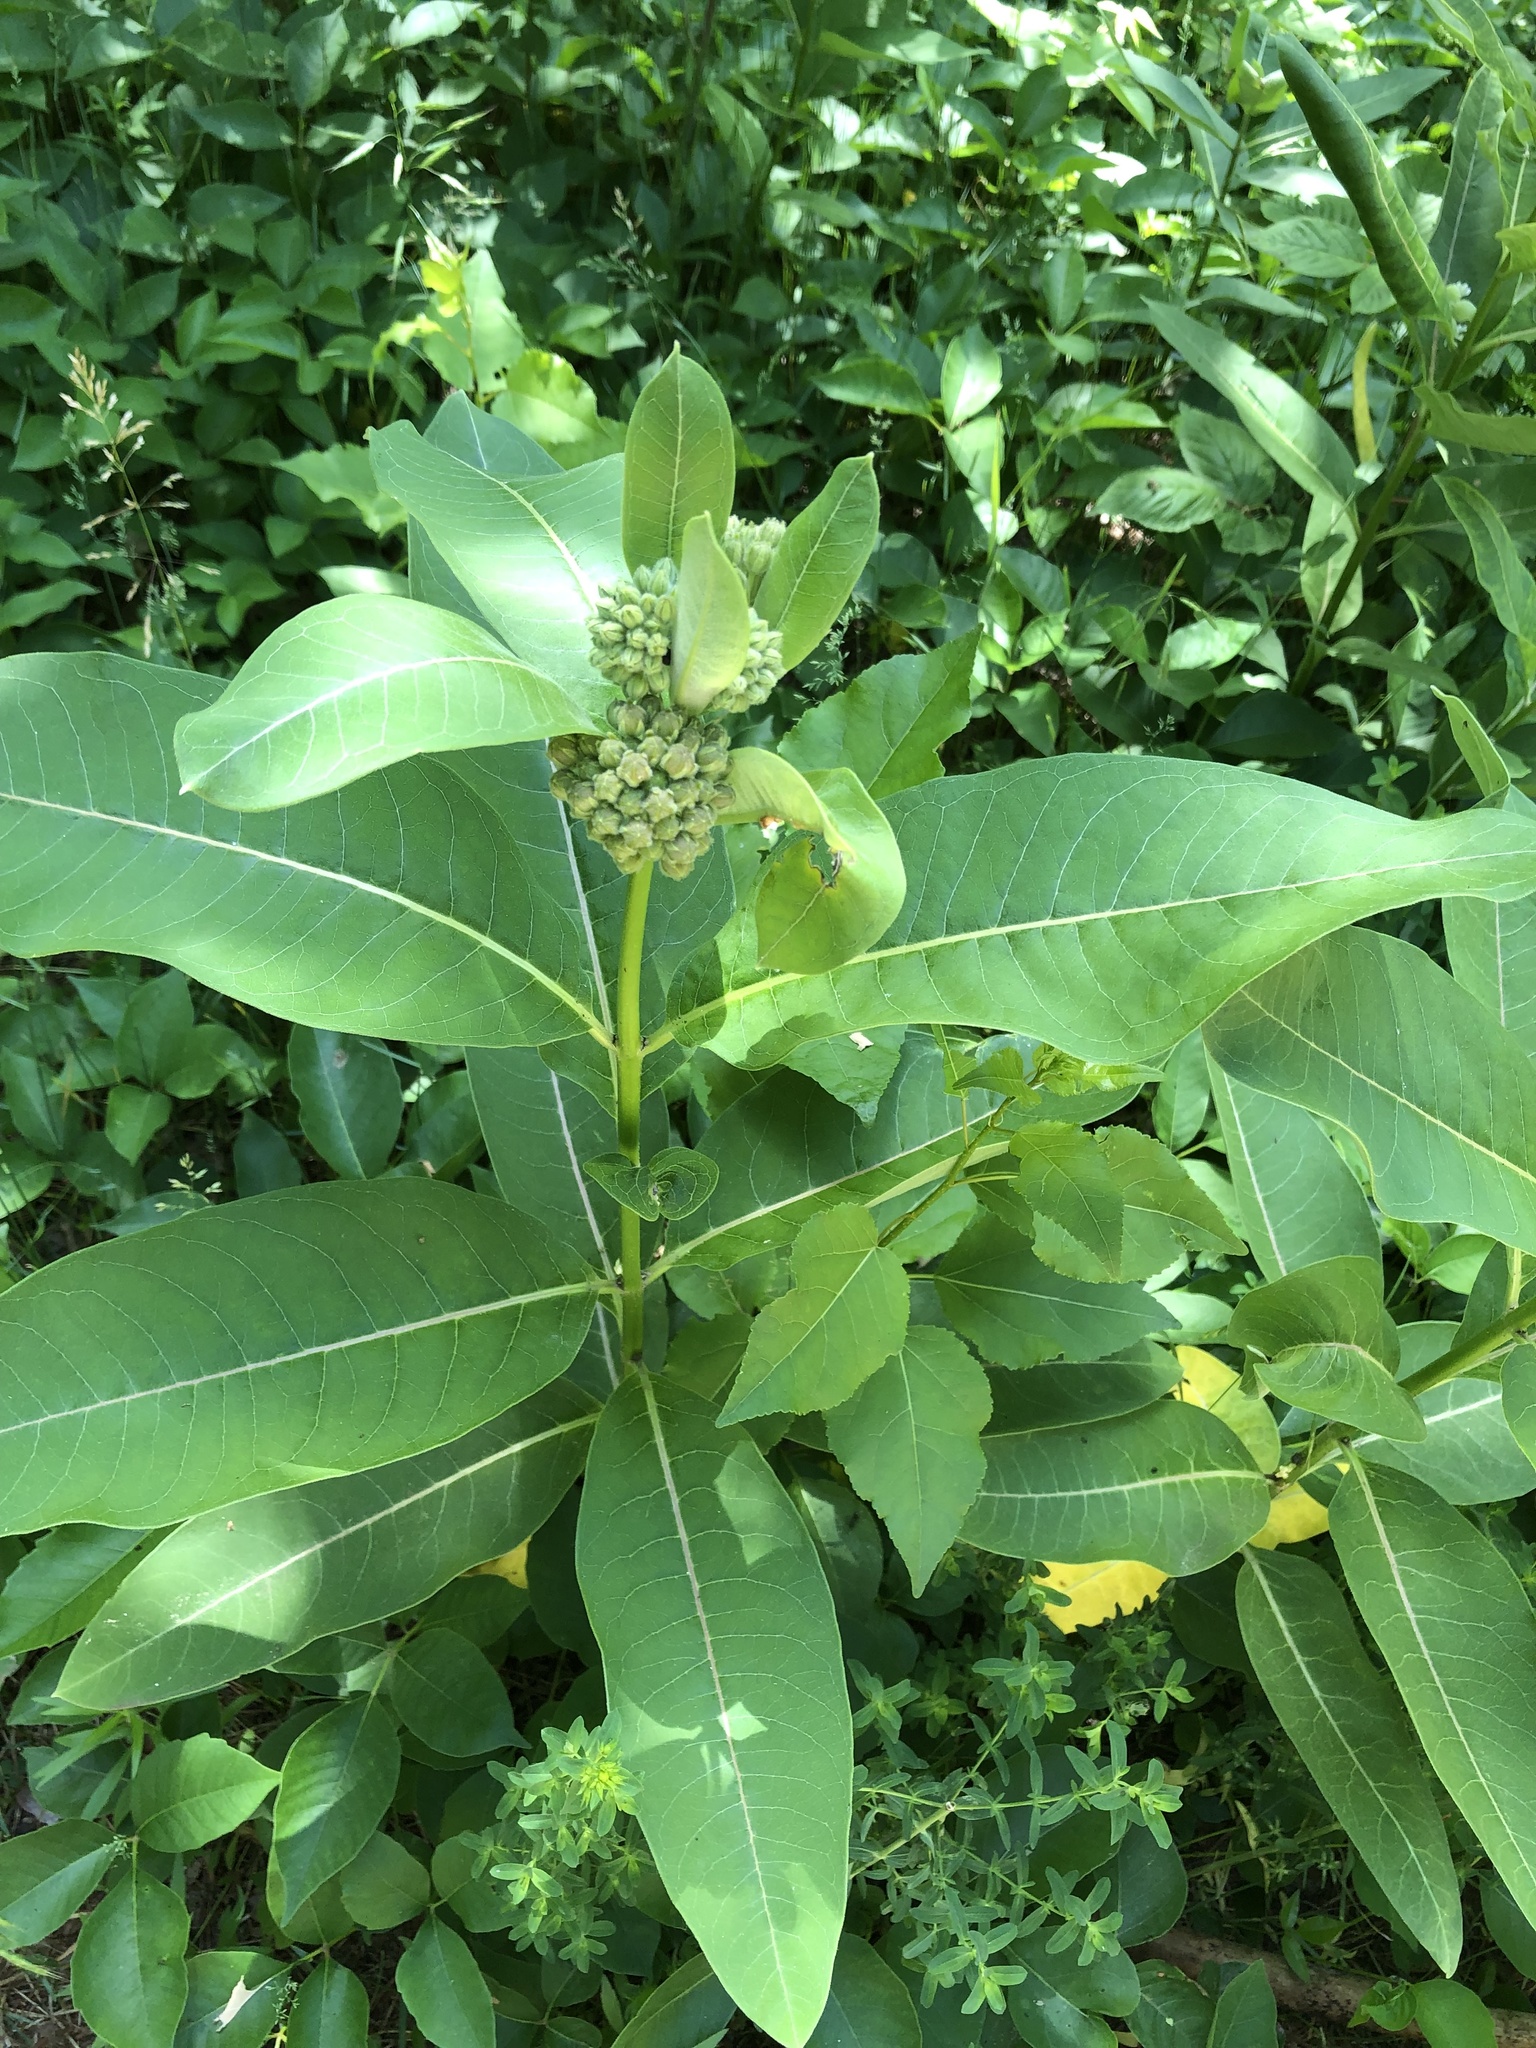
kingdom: Plantae
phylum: Tracheophyta
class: Magnoliopsida
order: Gentianales
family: Apocynaceae
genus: Asclepias
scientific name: Asclepias syriaca
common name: Common milkweed
